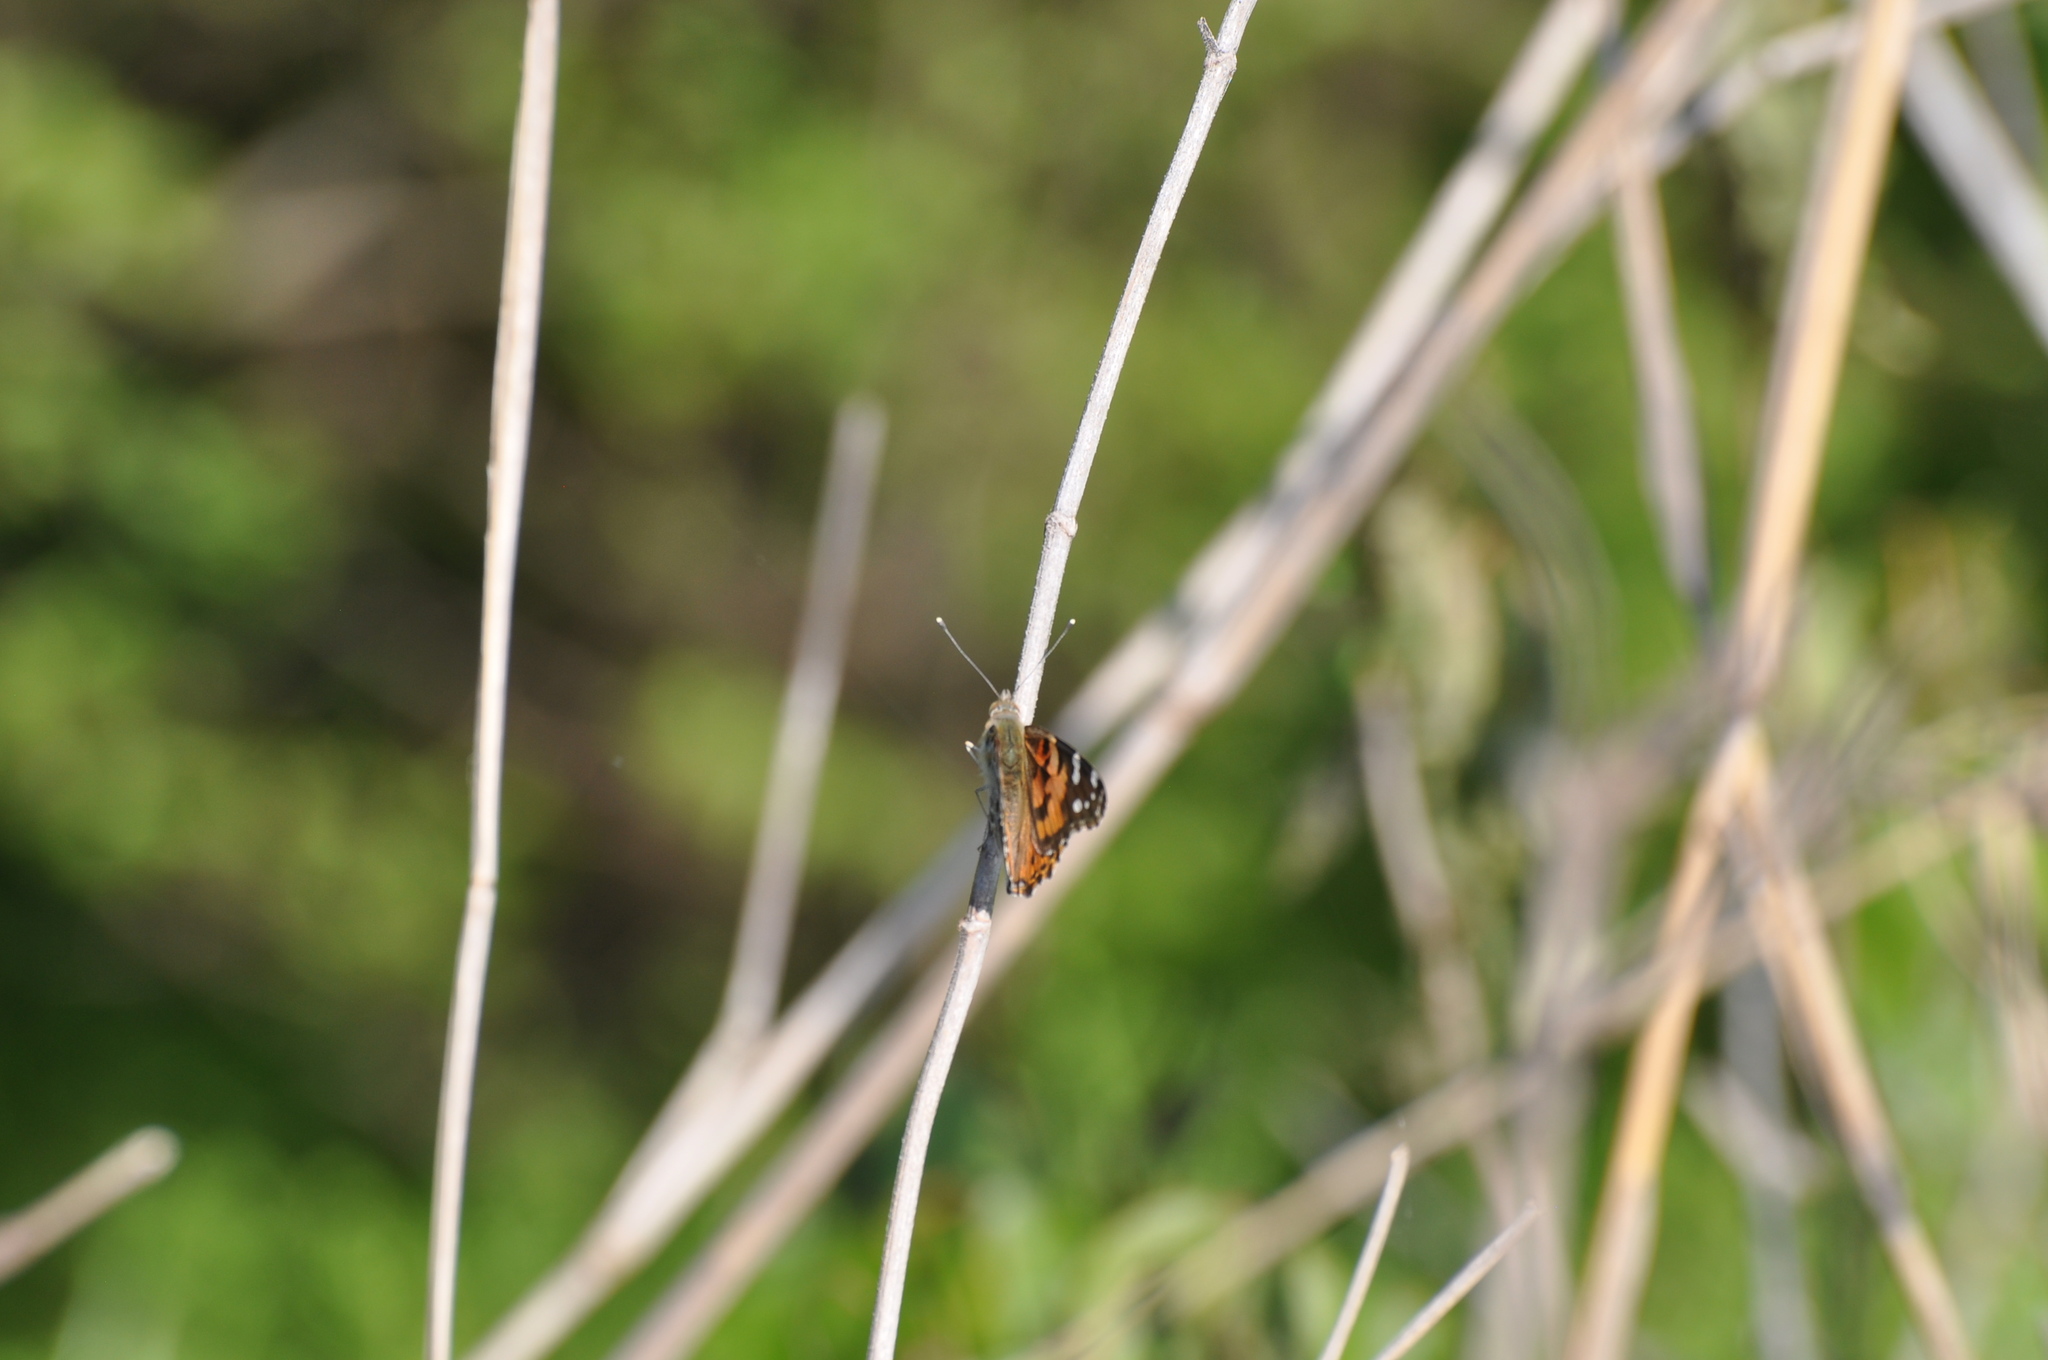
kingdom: Animalia
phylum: Arthropoda
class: Insecta
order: Lepidoptera
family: Nymphalidae
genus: Vanessa
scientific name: Vanessa cardui
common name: Painted lady
